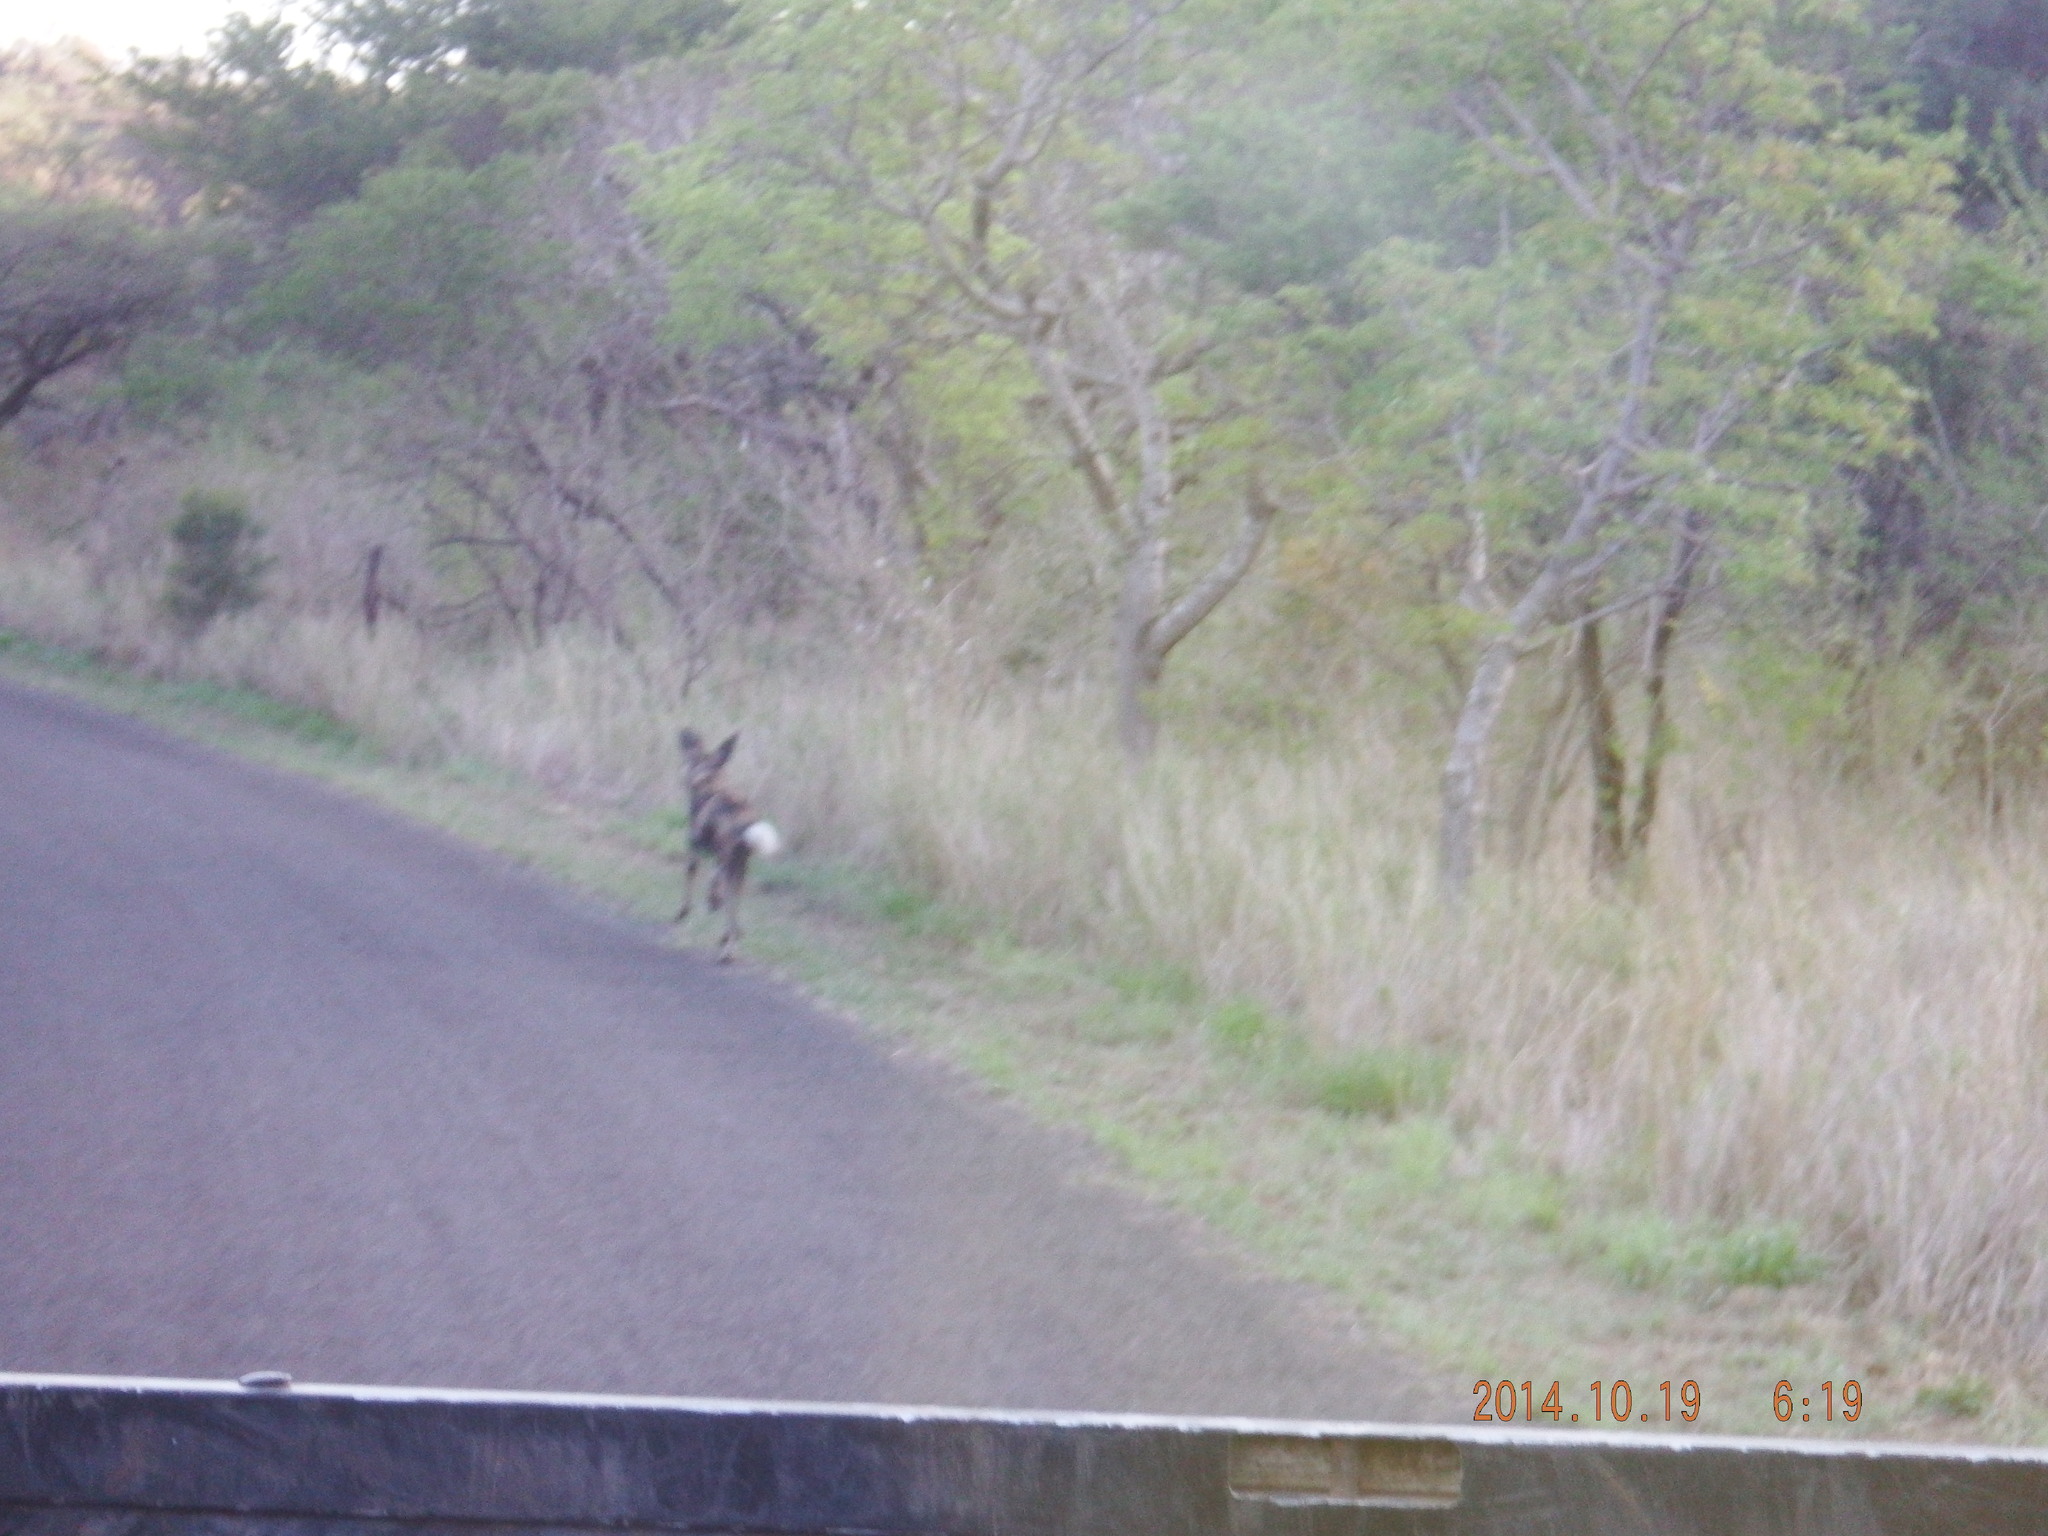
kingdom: Animalia
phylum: Chordata
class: Mammalia
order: Carnivora
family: Canidae
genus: Lycaon
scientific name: Lycaon pictus
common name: African wild dog
